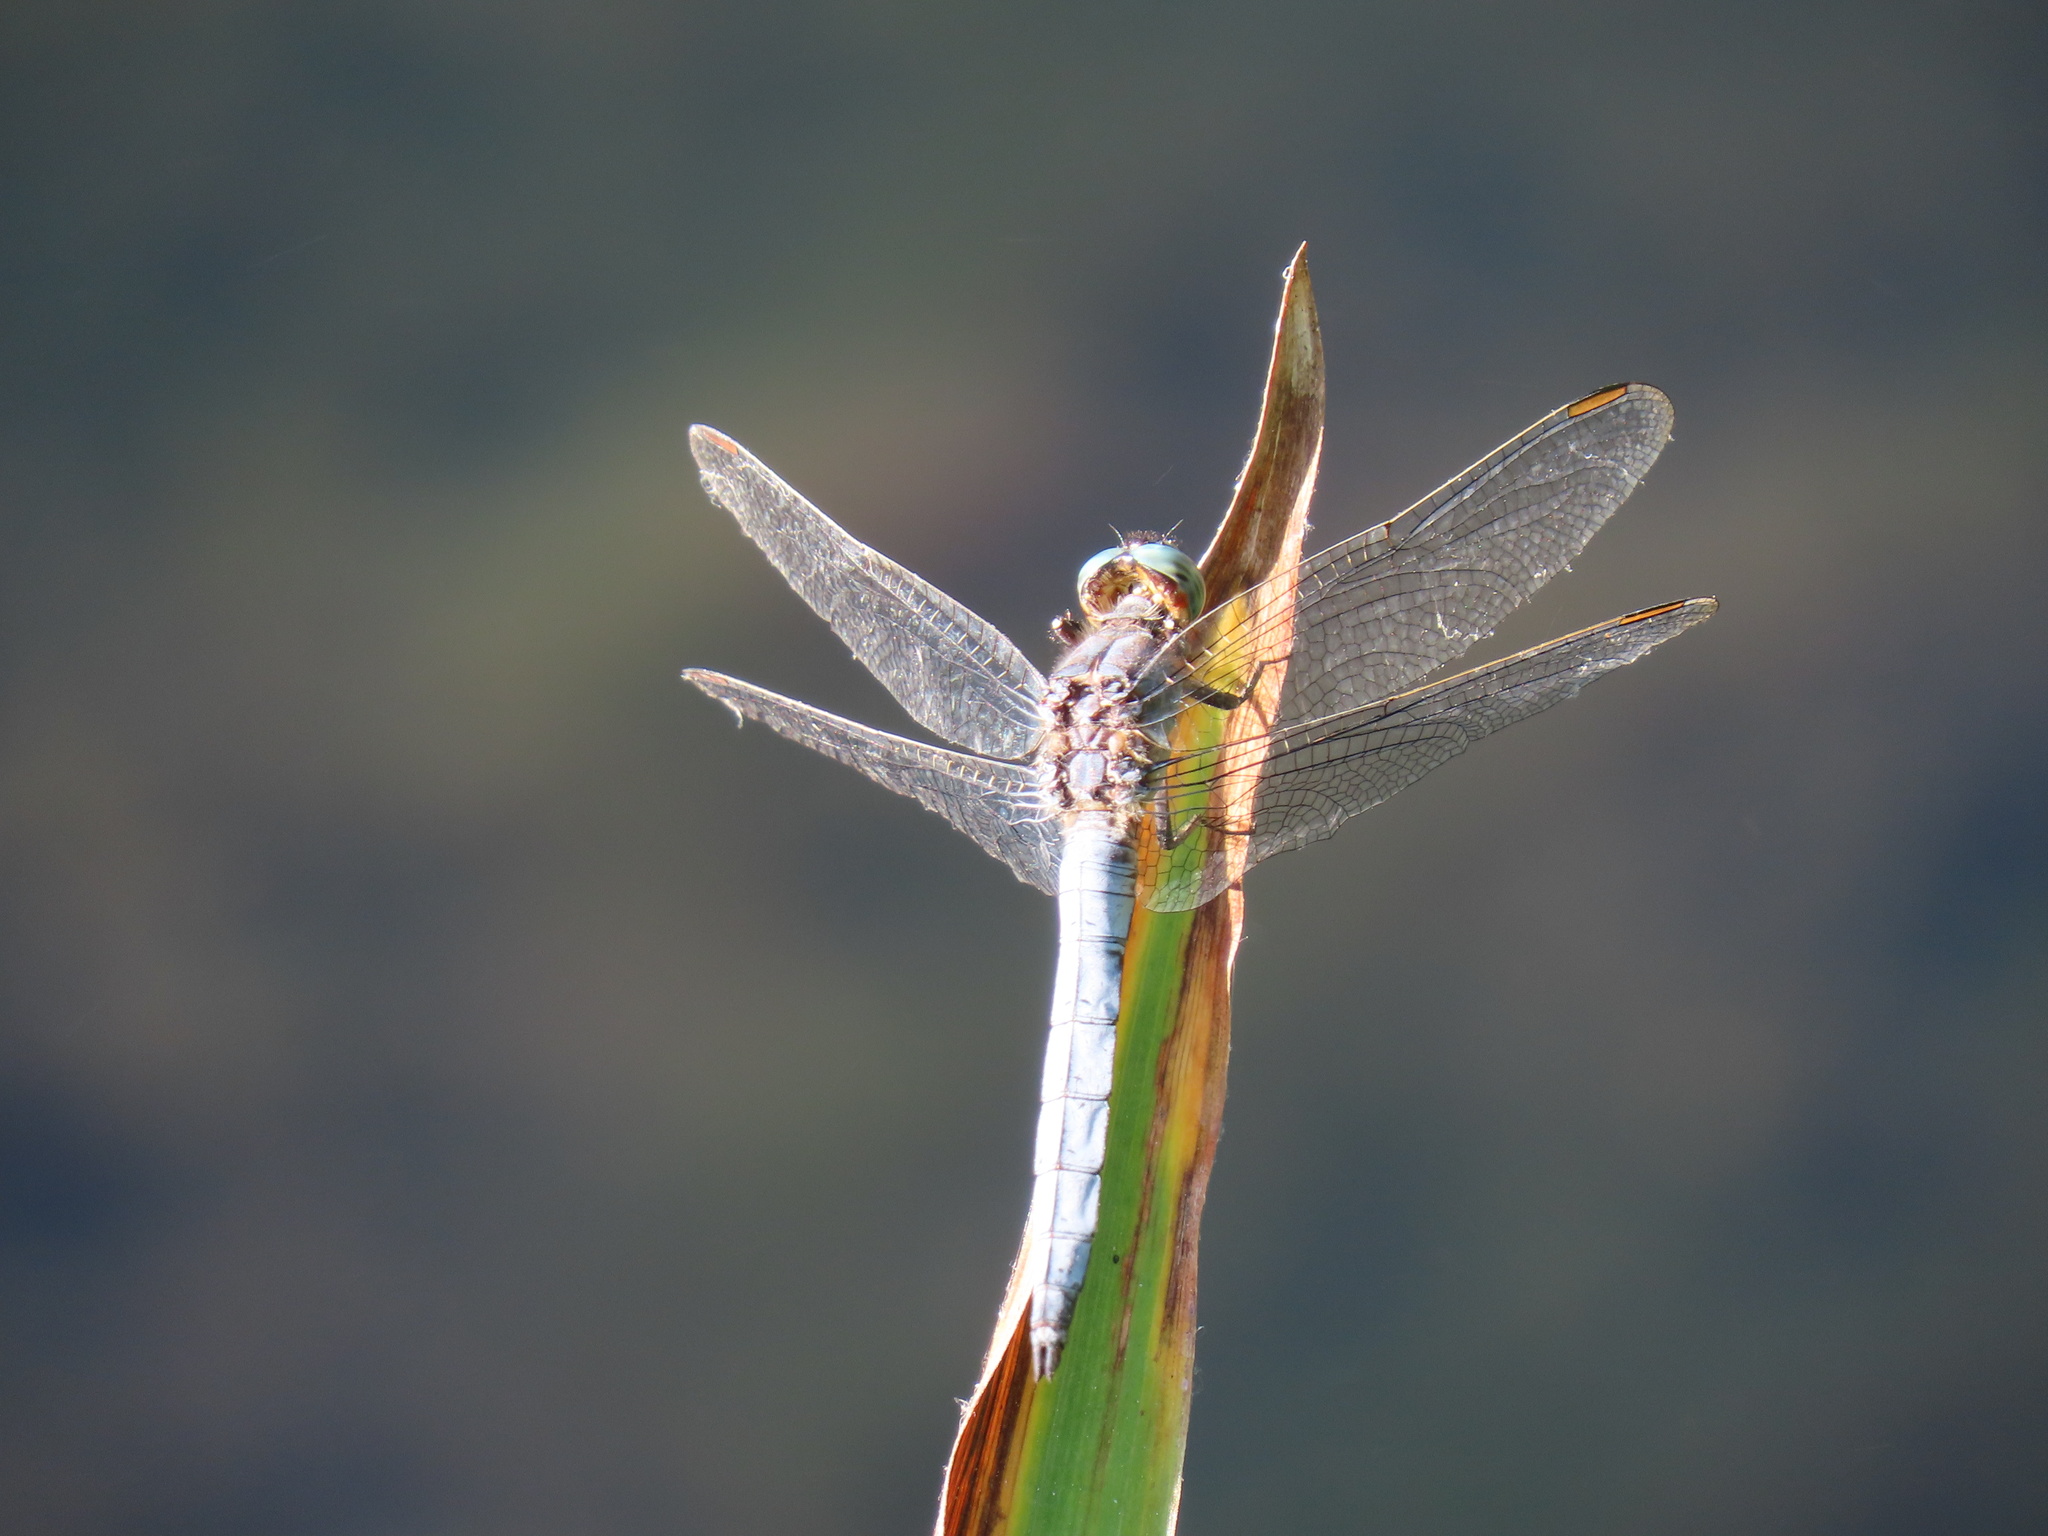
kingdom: Animalia
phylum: Arthropoda
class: Insecta
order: Odonata
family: Libellulidae
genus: Orthetrum
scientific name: Orthetrum coerulescens
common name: Keeled skimmer
